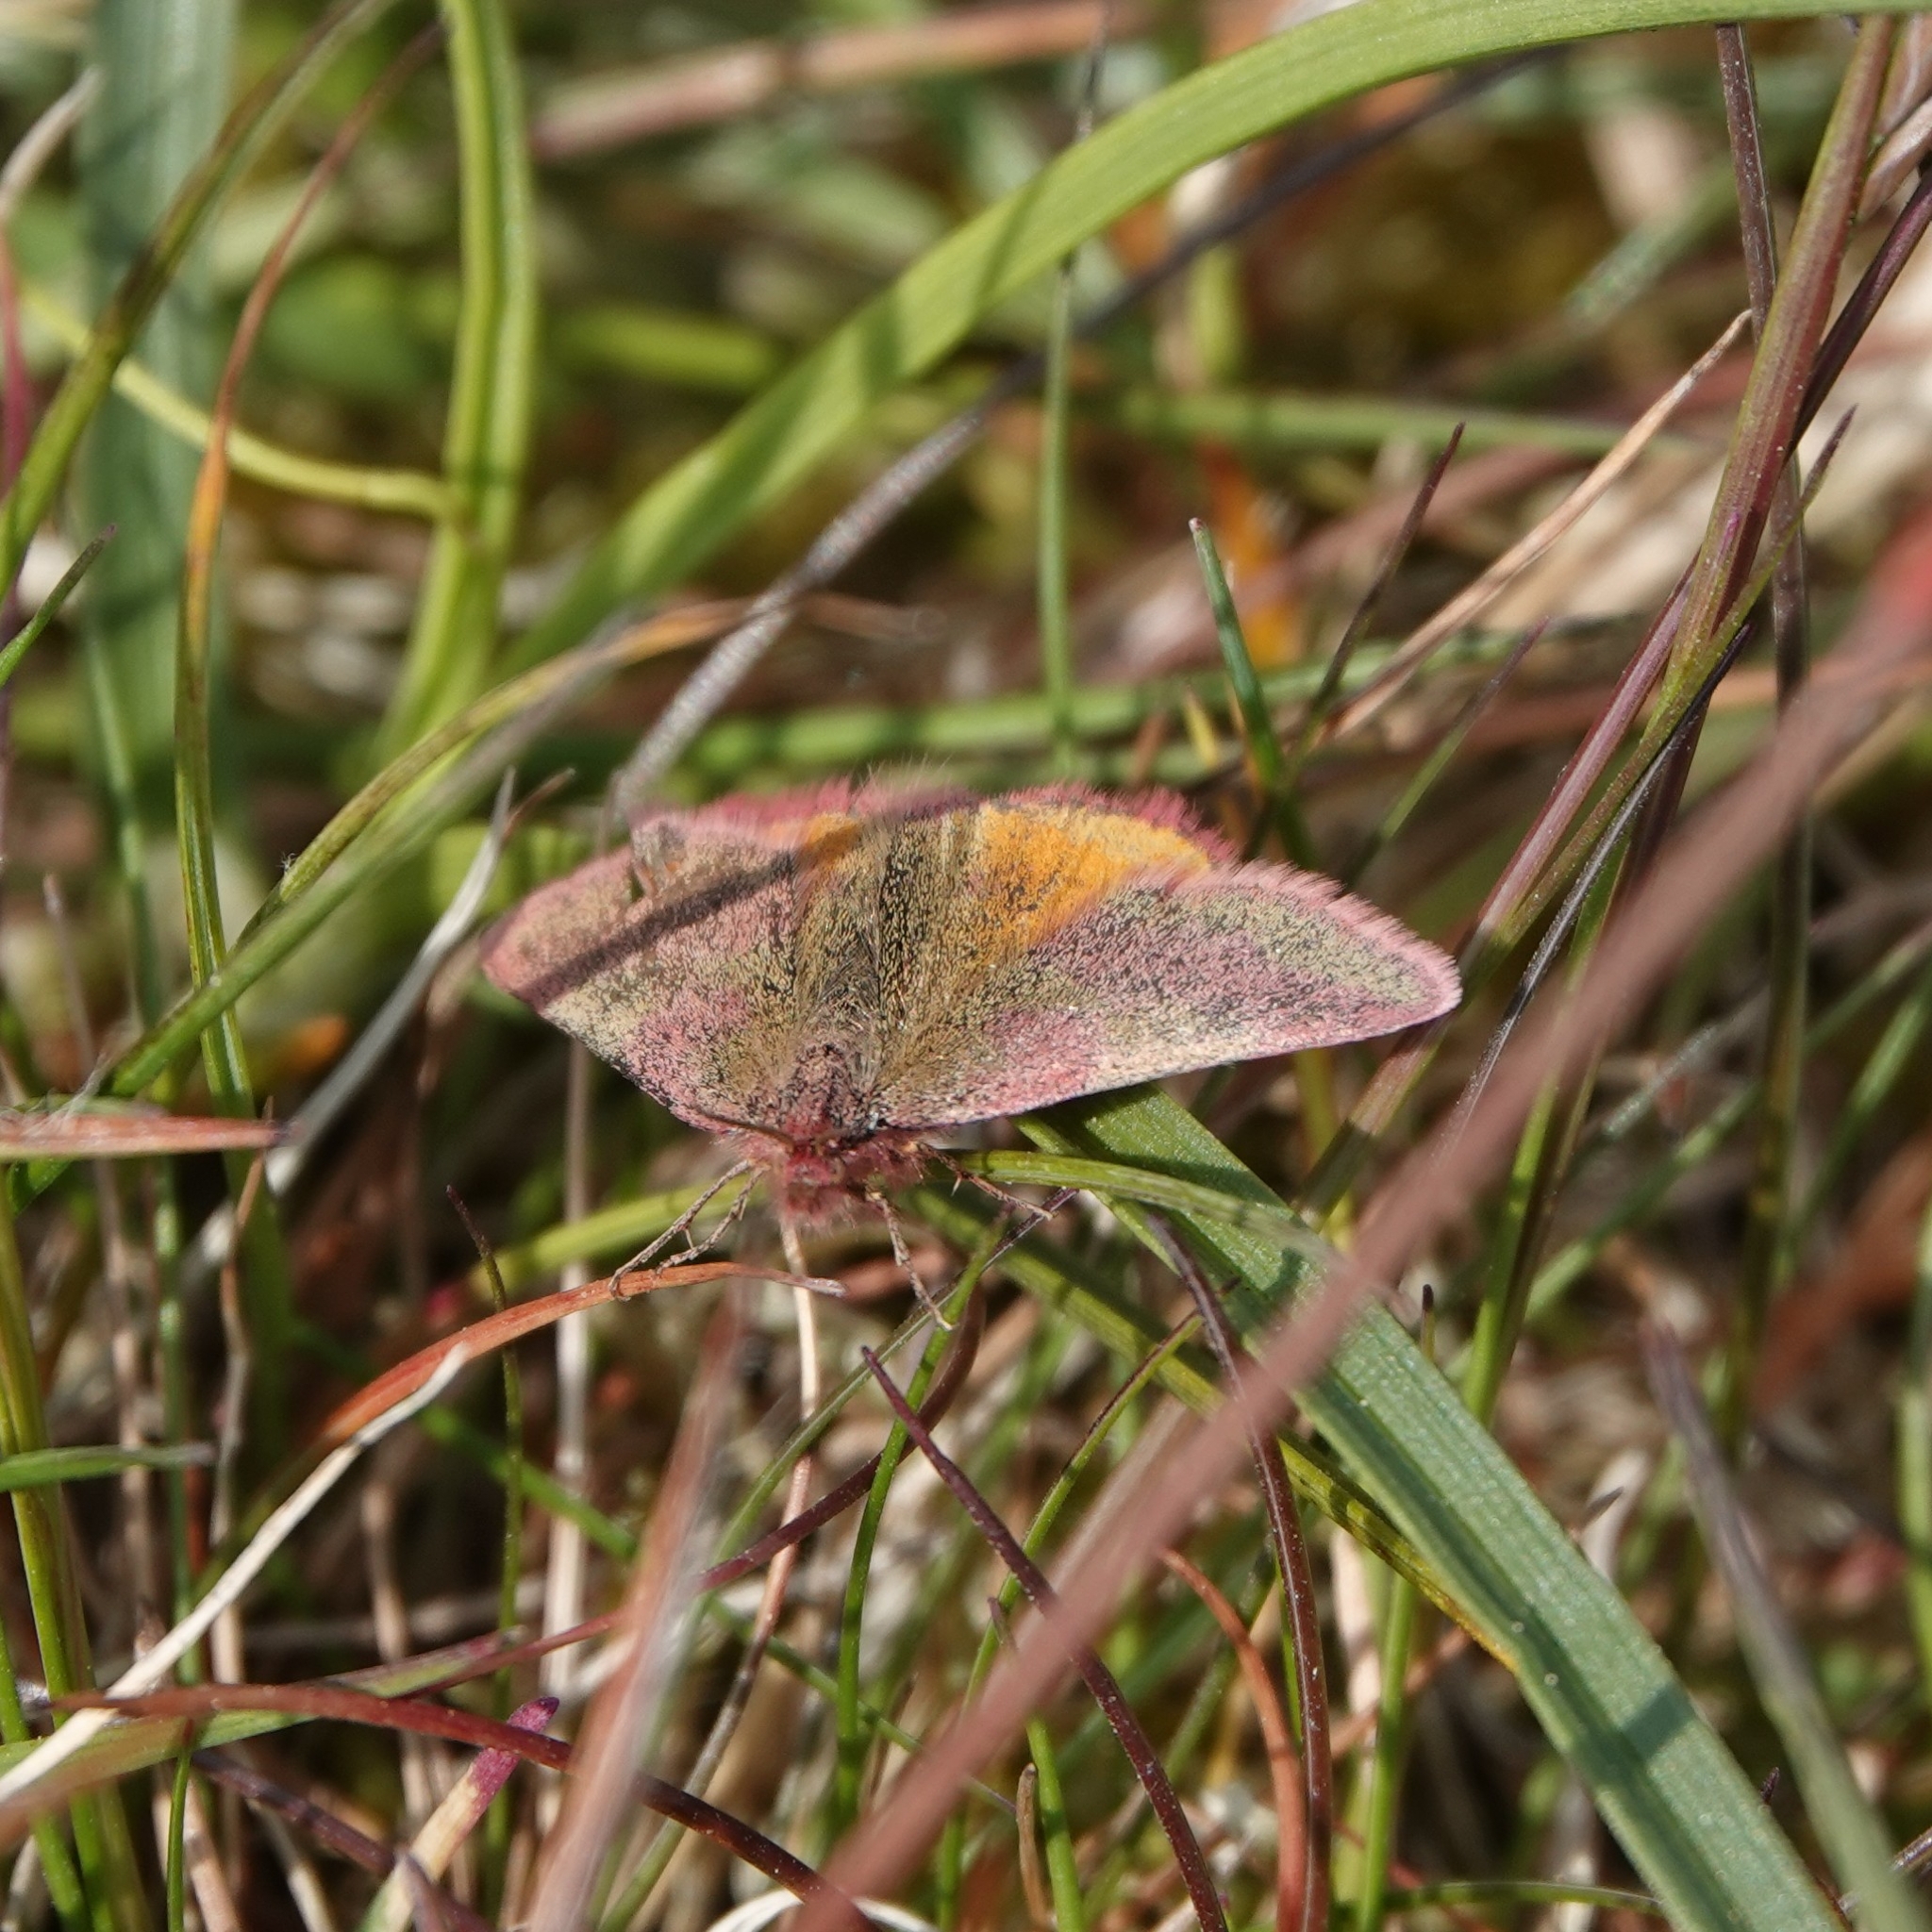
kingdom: Animalia
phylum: Arthropoda
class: Insecta
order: Lepidoptera
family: Geometridae
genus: Lythria
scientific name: Lythria cruentaria
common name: Purple-barred yellow
